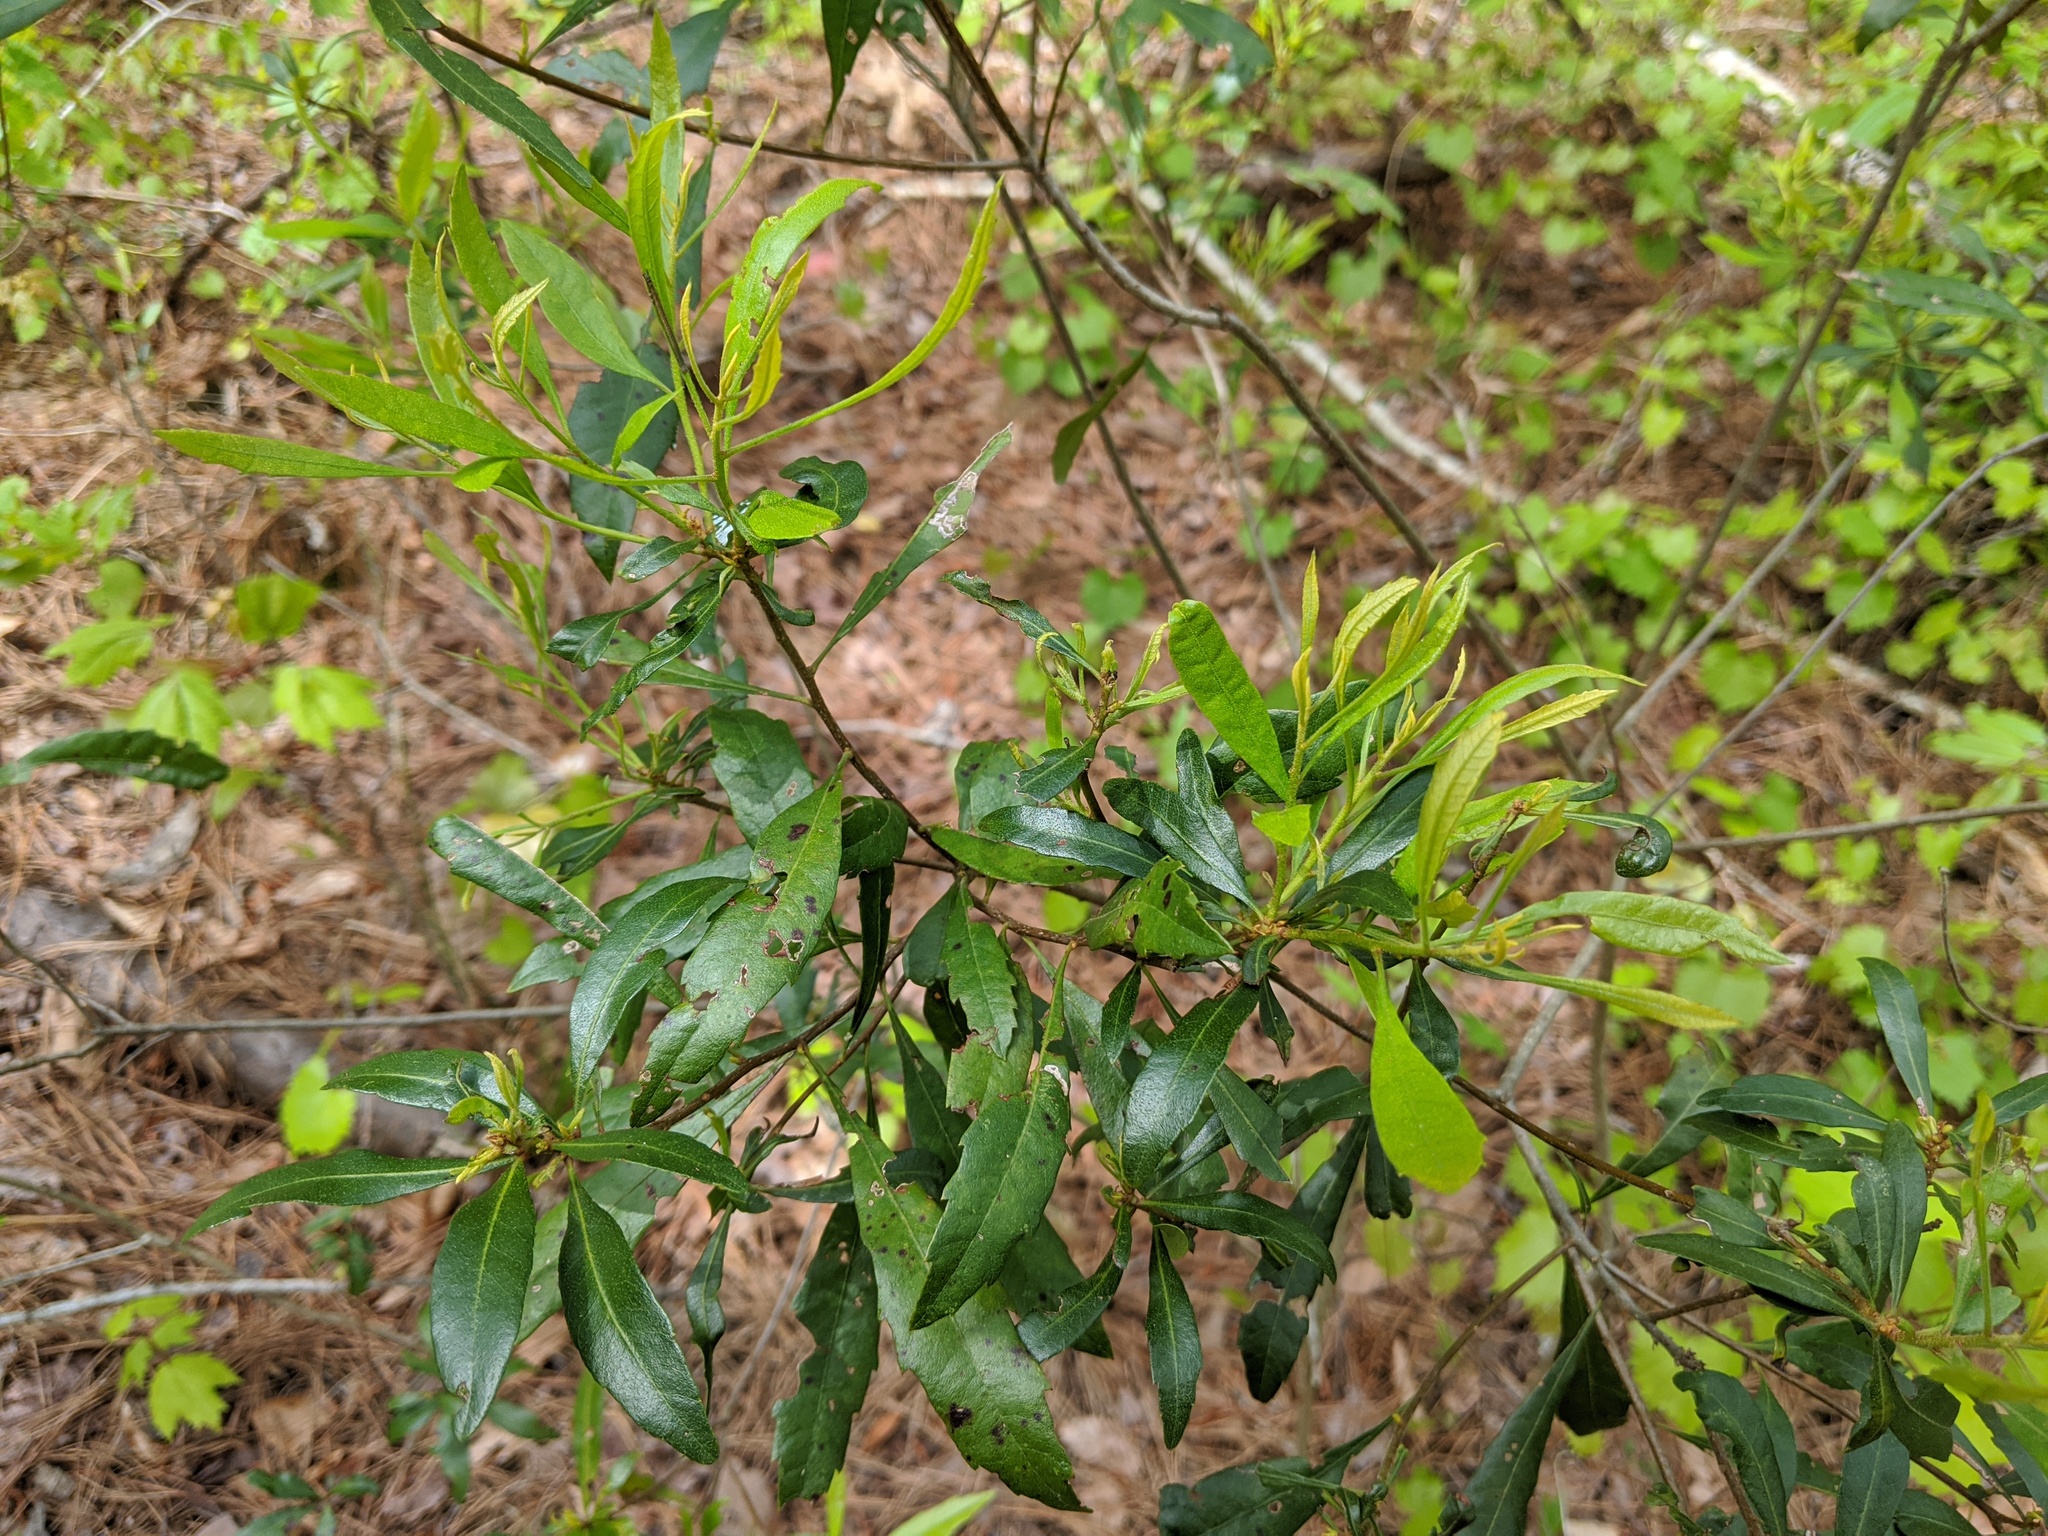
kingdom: Plantae
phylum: Tracheophyta
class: Magnoliopsida
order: Fagales
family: Myricaceae
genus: Morella
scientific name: Morella cerifera
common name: Wax myrtle
